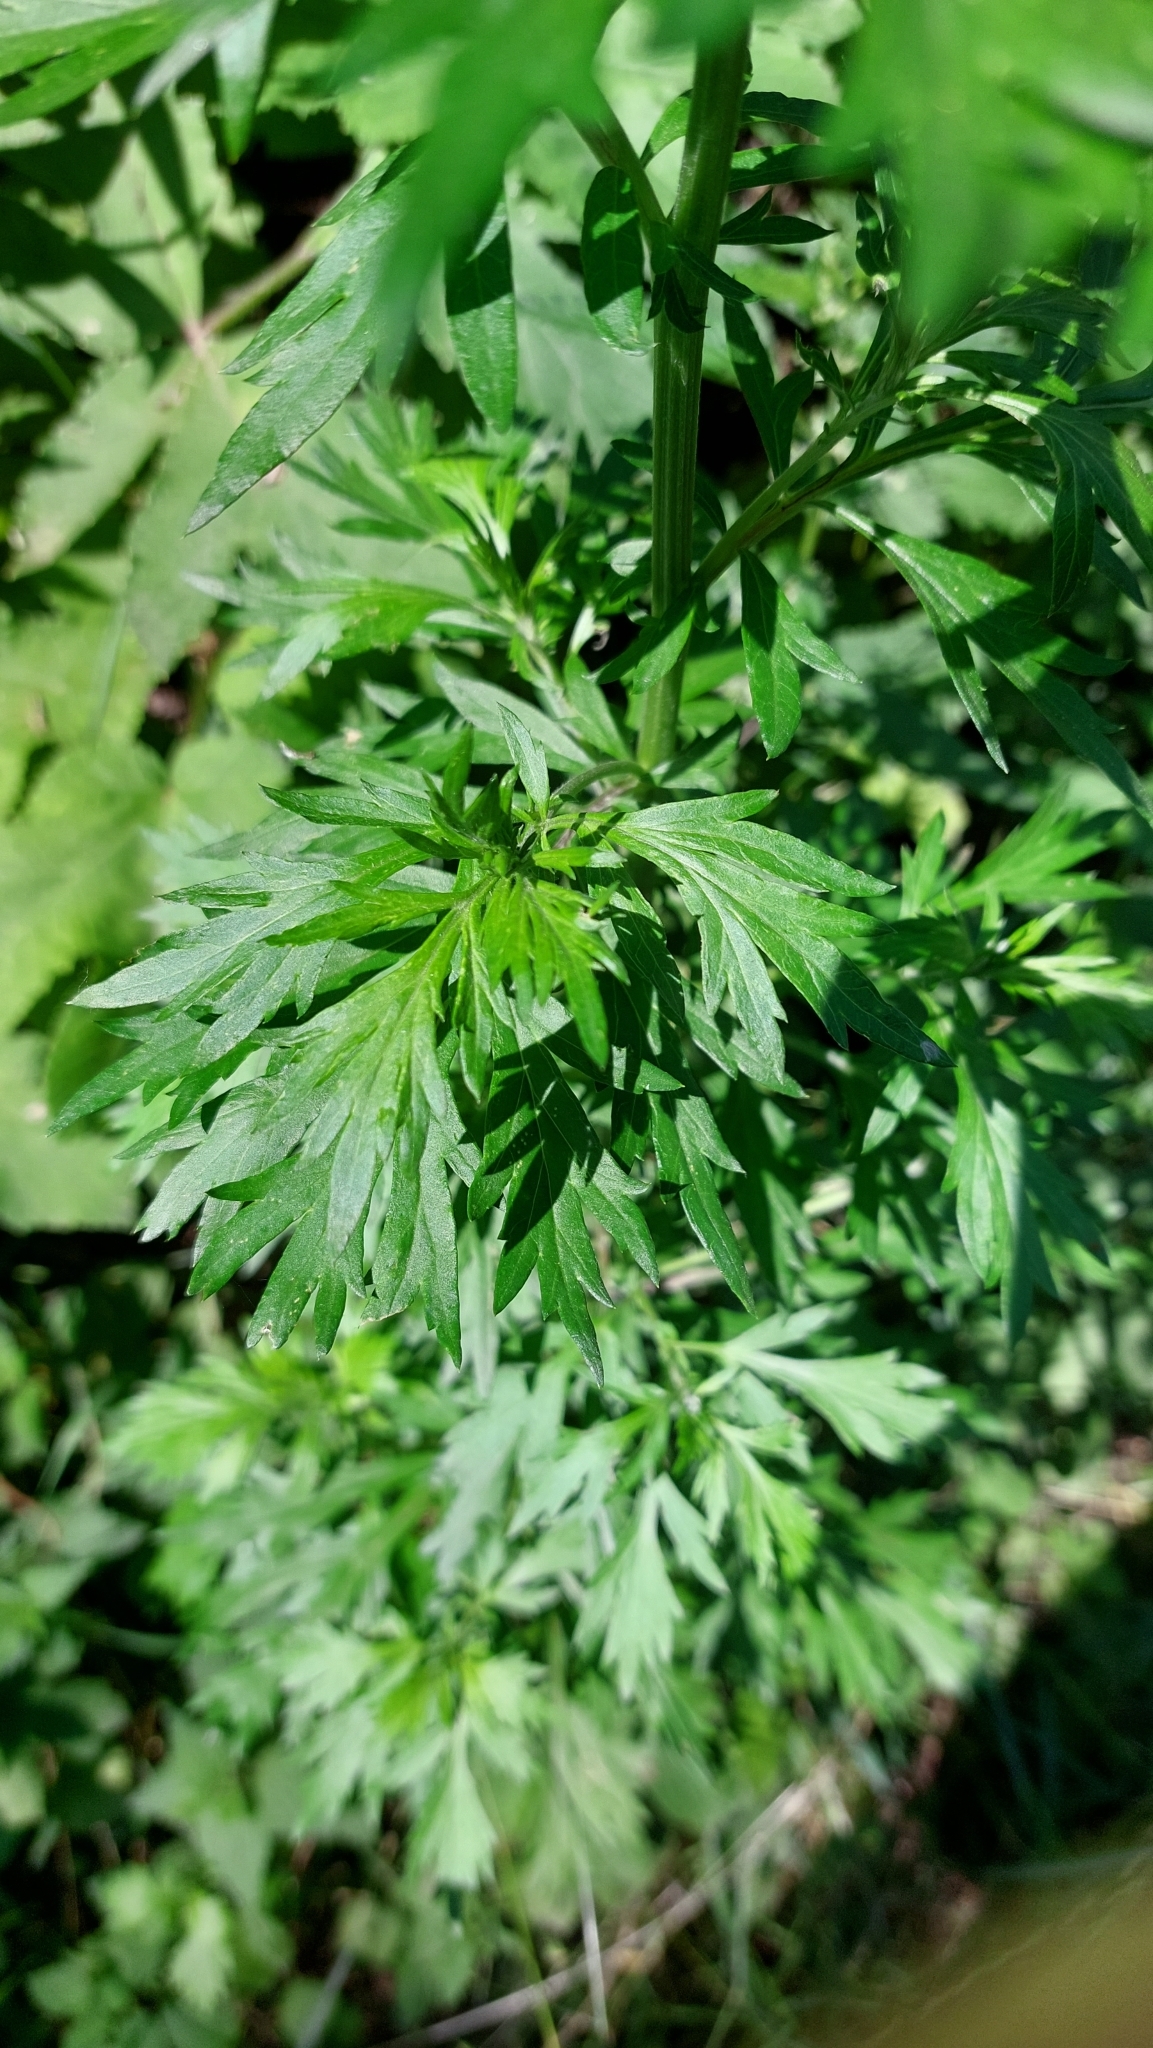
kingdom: Plantae
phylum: Tracheophyta
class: Magnoliopsida
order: Asterales
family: Asteraceae
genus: Artemisia
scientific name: Artemisia vulgaris
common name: Mugwort
